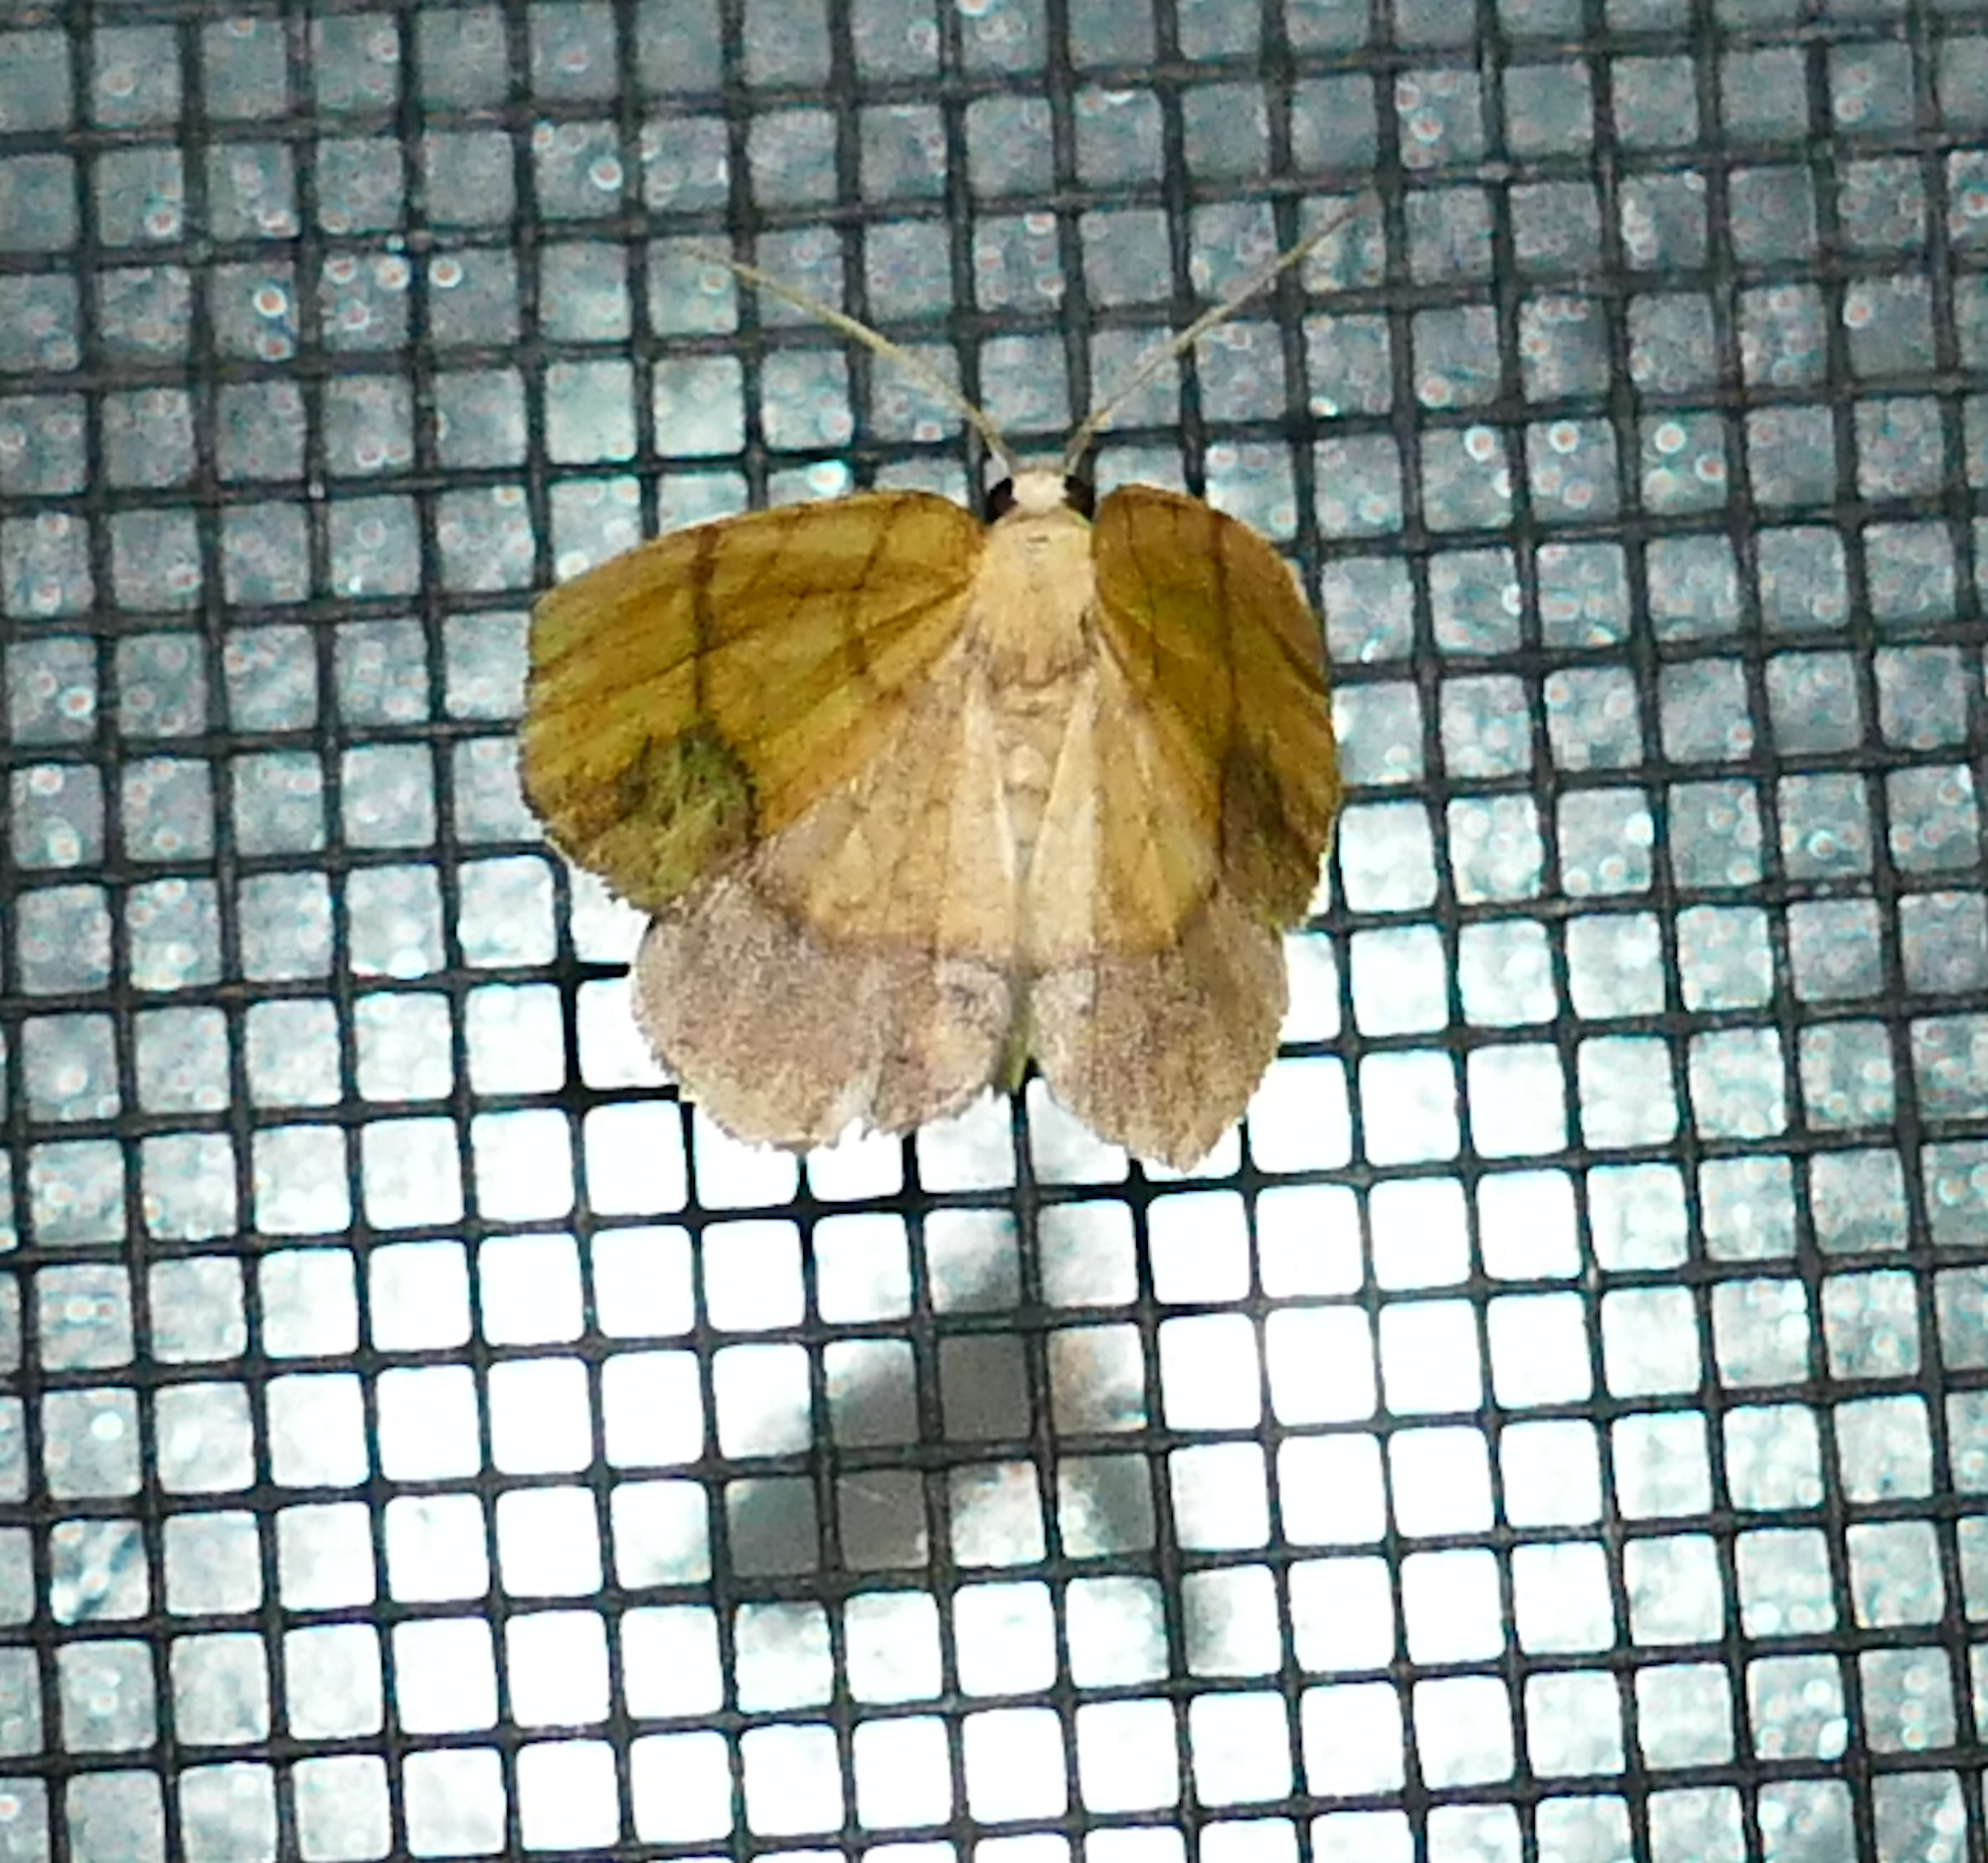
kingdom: Animalia
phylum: Arthropoda
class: Insecta
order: Lepidoptera
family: Geometridae
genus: Nematocampa
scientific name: Nematocampa resistaria
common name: Horned spanworm moth
